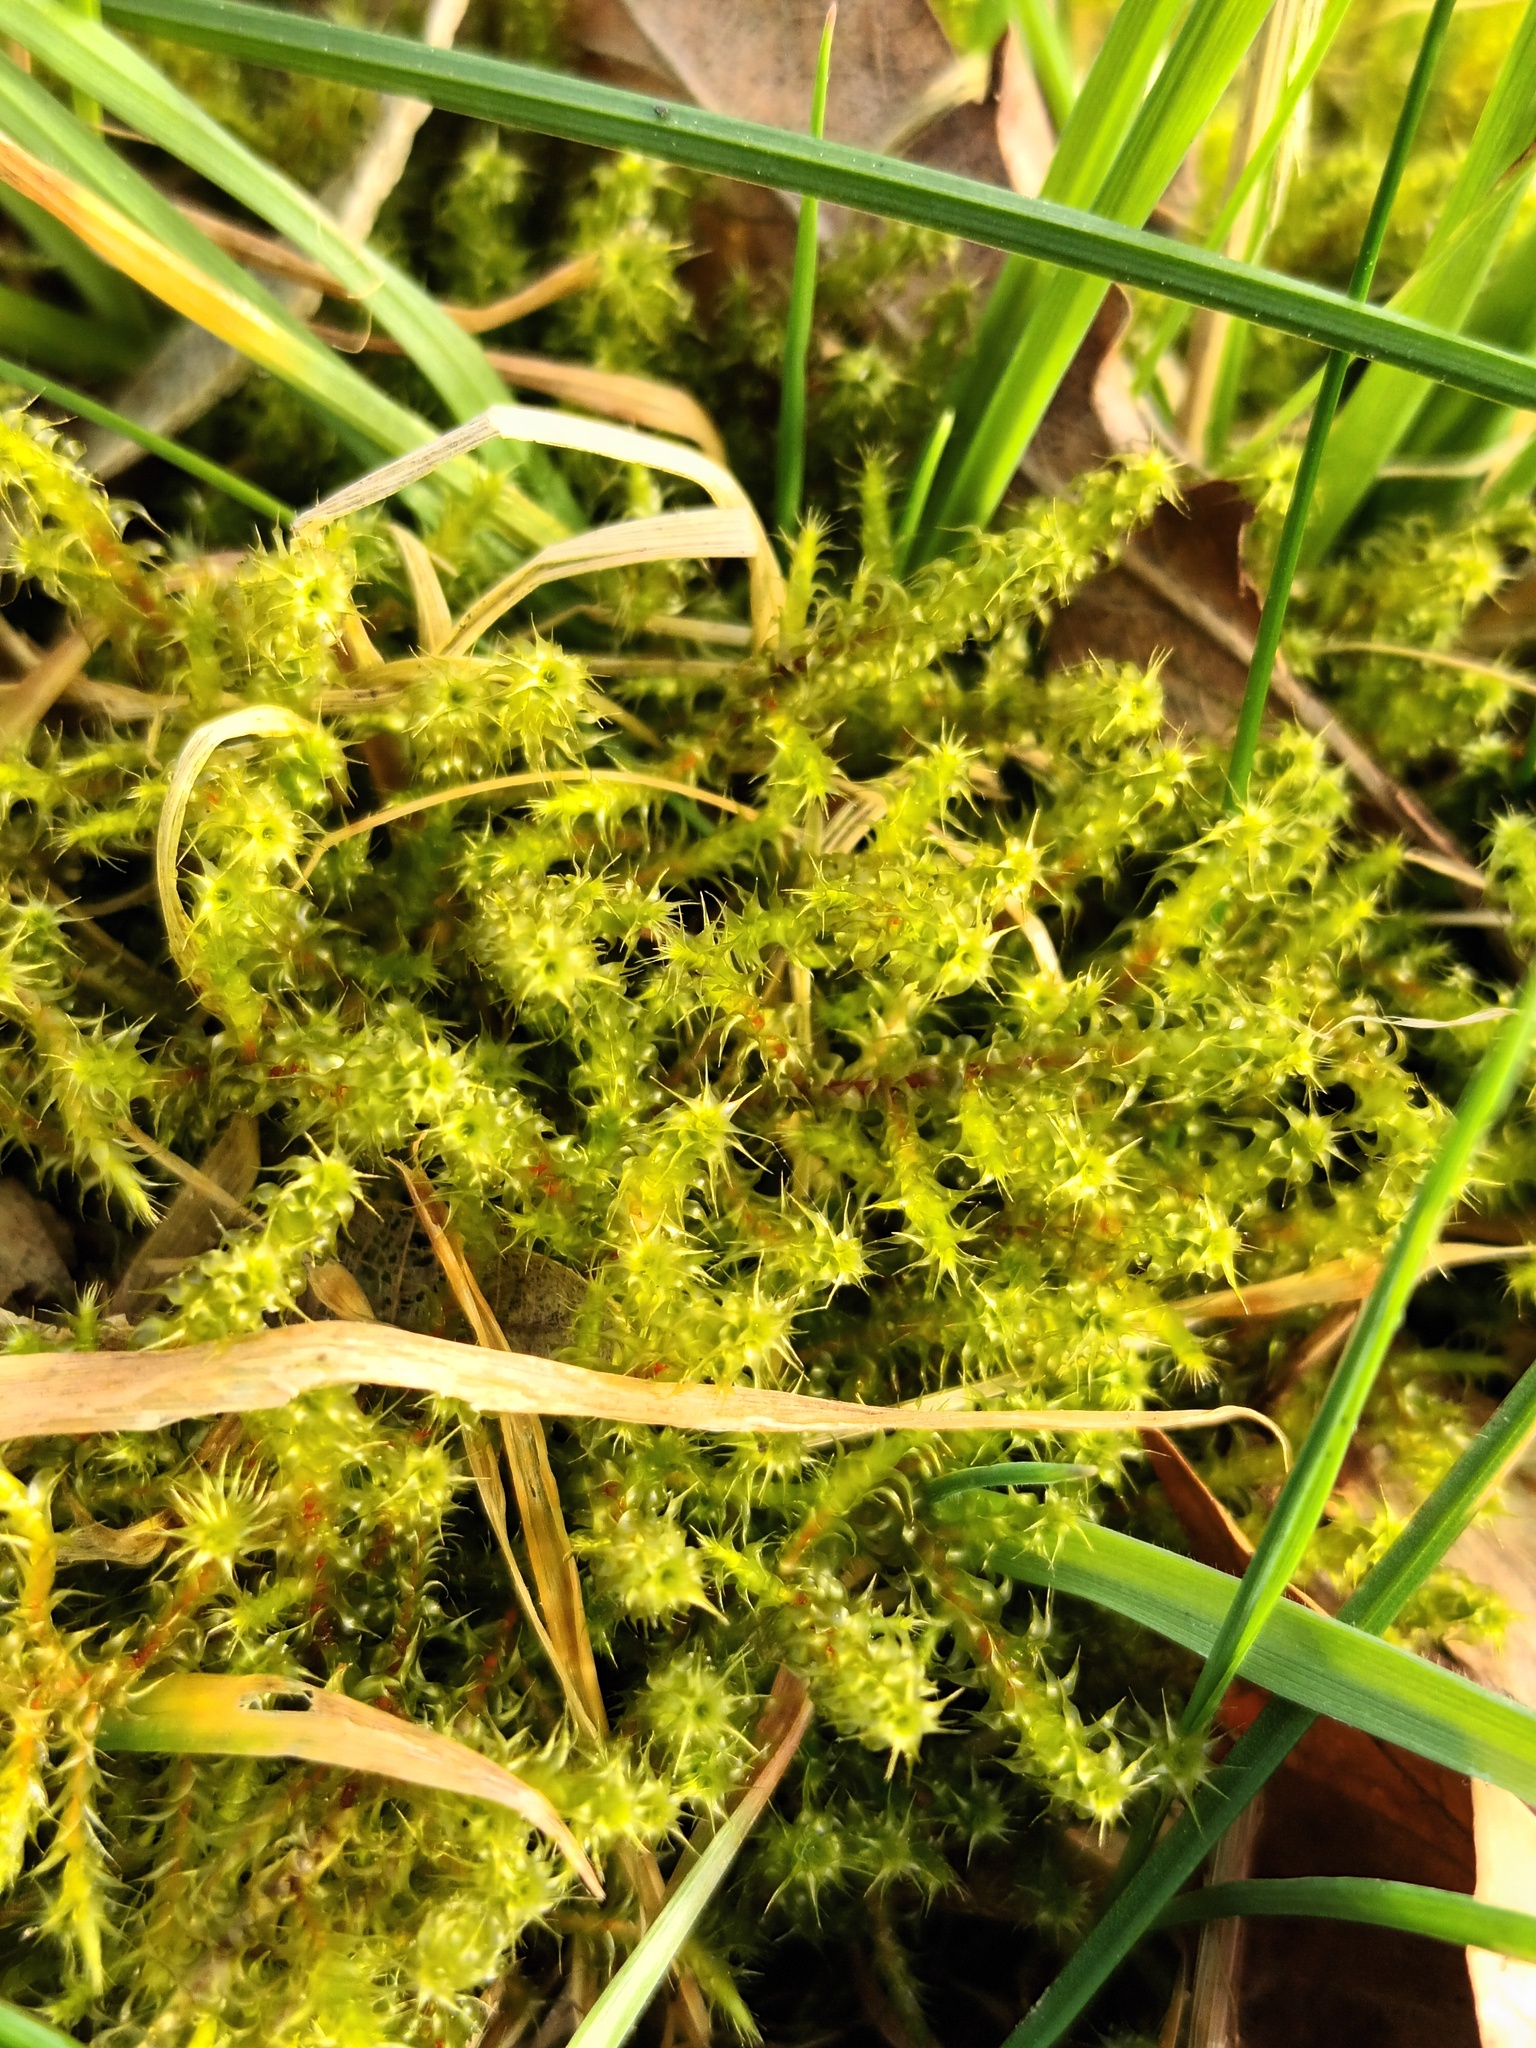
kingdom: Plantae
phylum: Bryophyta
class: Bryopsida
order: Hypnales
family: Hylocomiaceae
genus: Rhytidiadelphus
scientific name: Rhytidiadelphus squarrosus
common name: Springy turf-moss
